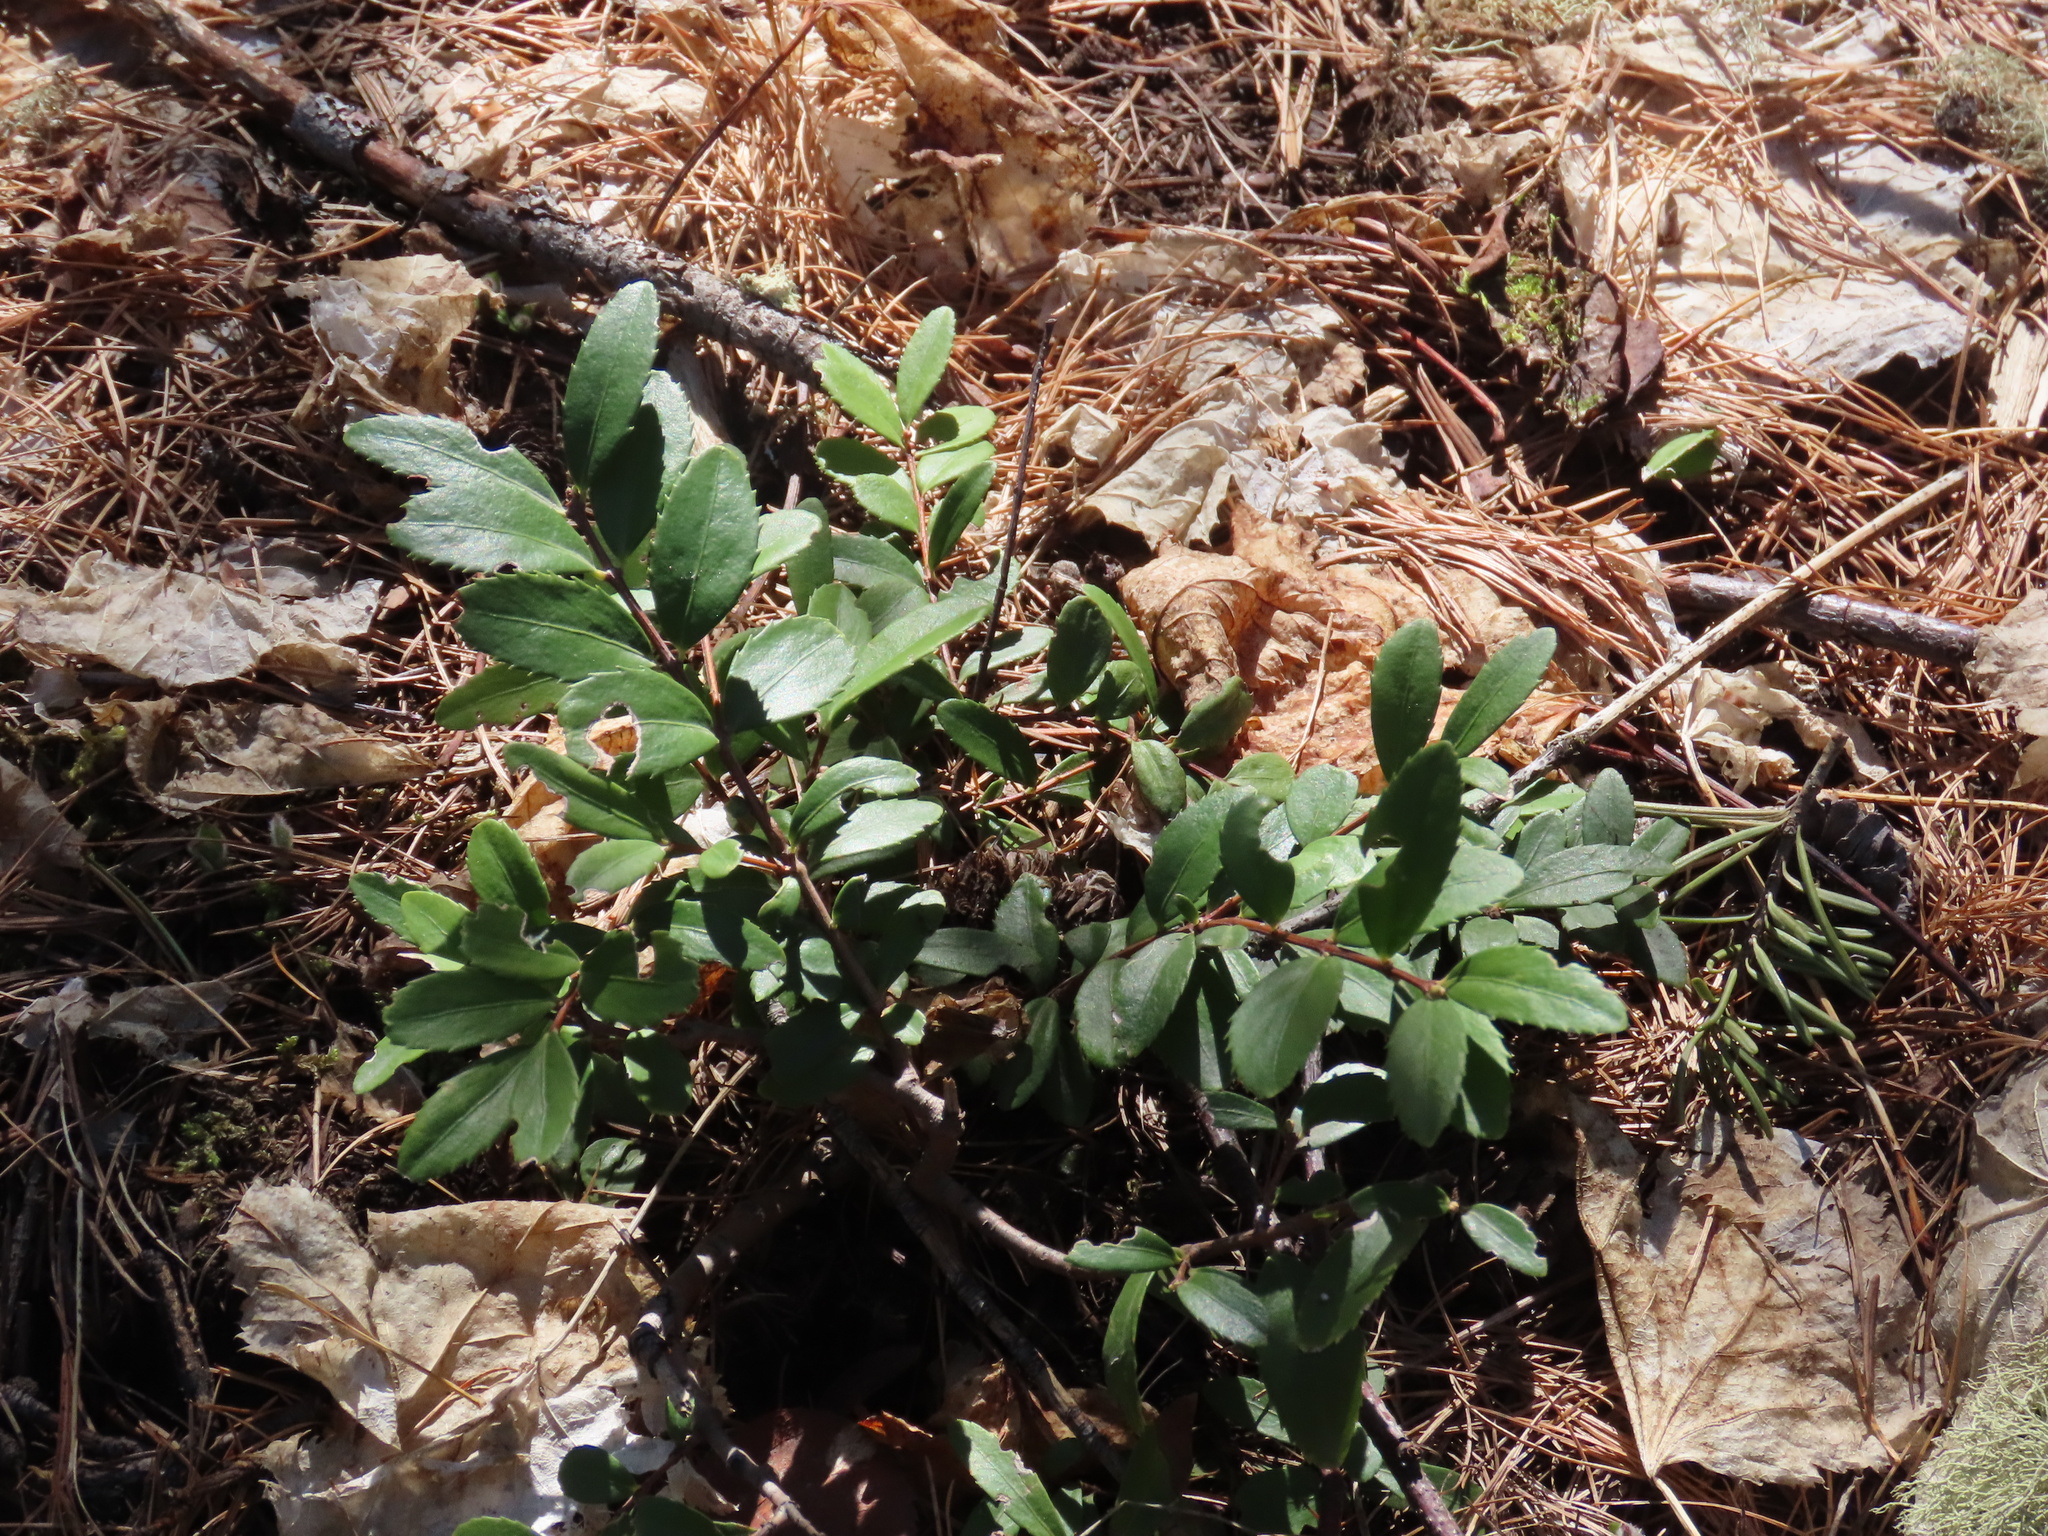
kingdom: Plantae
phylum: Tracheophyta
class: Magnoliopsida
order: Celastrales
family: Celastraceae
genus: Paxistima
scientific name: Paxistima myrsinites
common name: Mountain-lover
